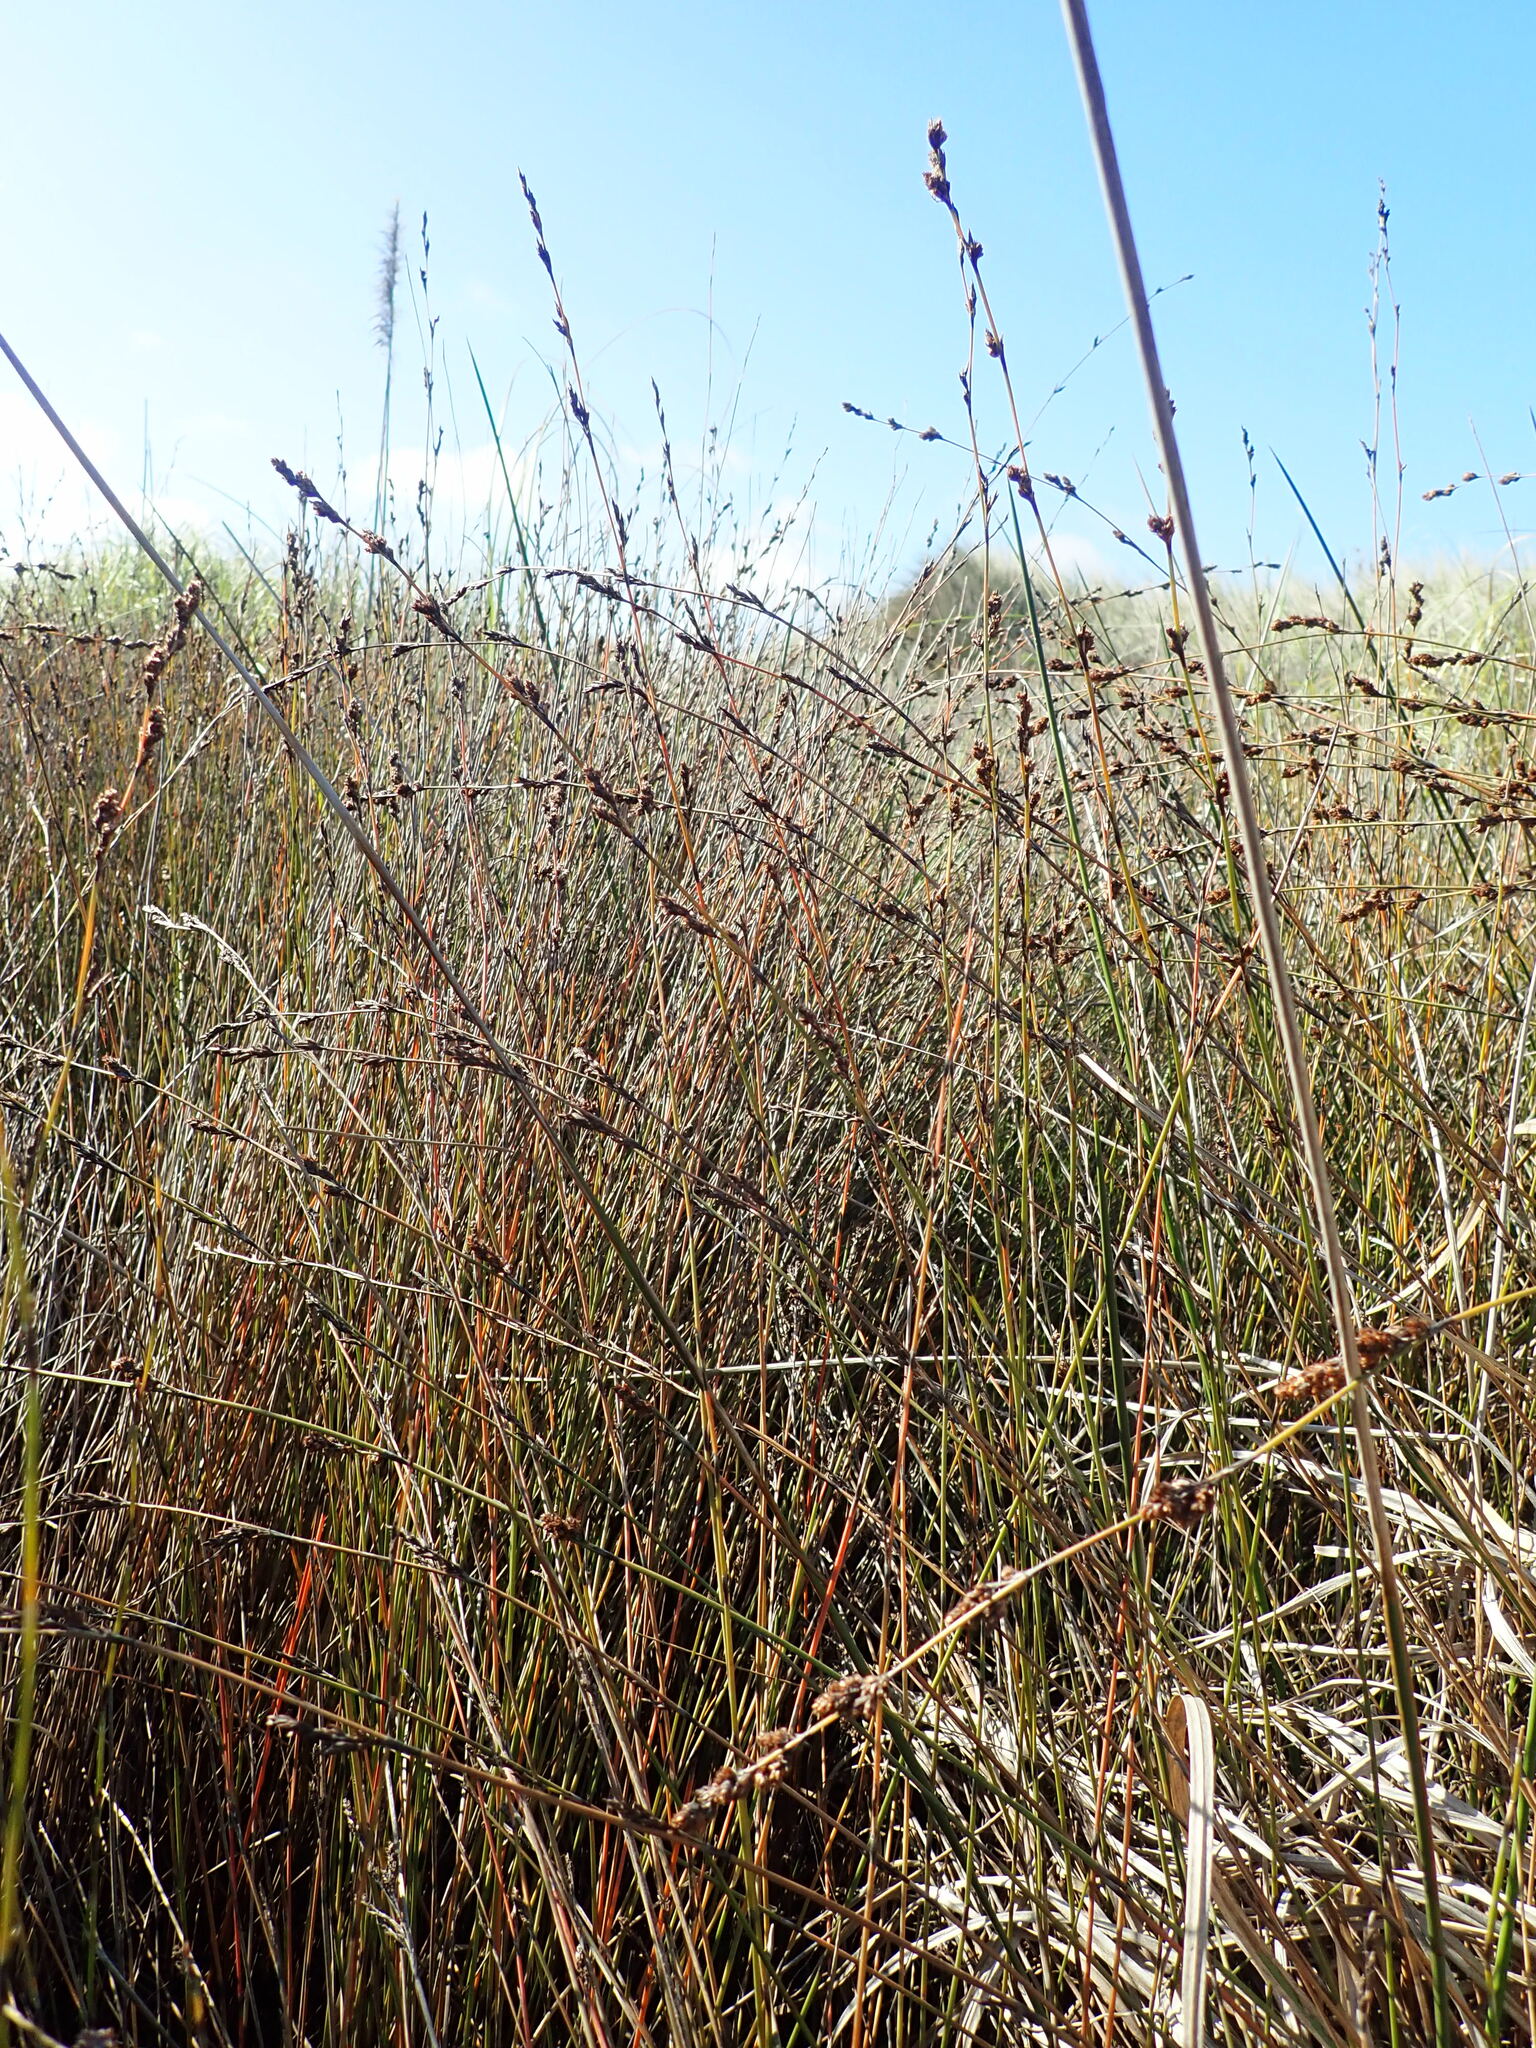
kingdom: Plantae
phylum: Tracheophyta
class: Liliopsida
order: Poales
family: Restionaceae
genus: Apodasmia
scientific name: Apodasmia similis
